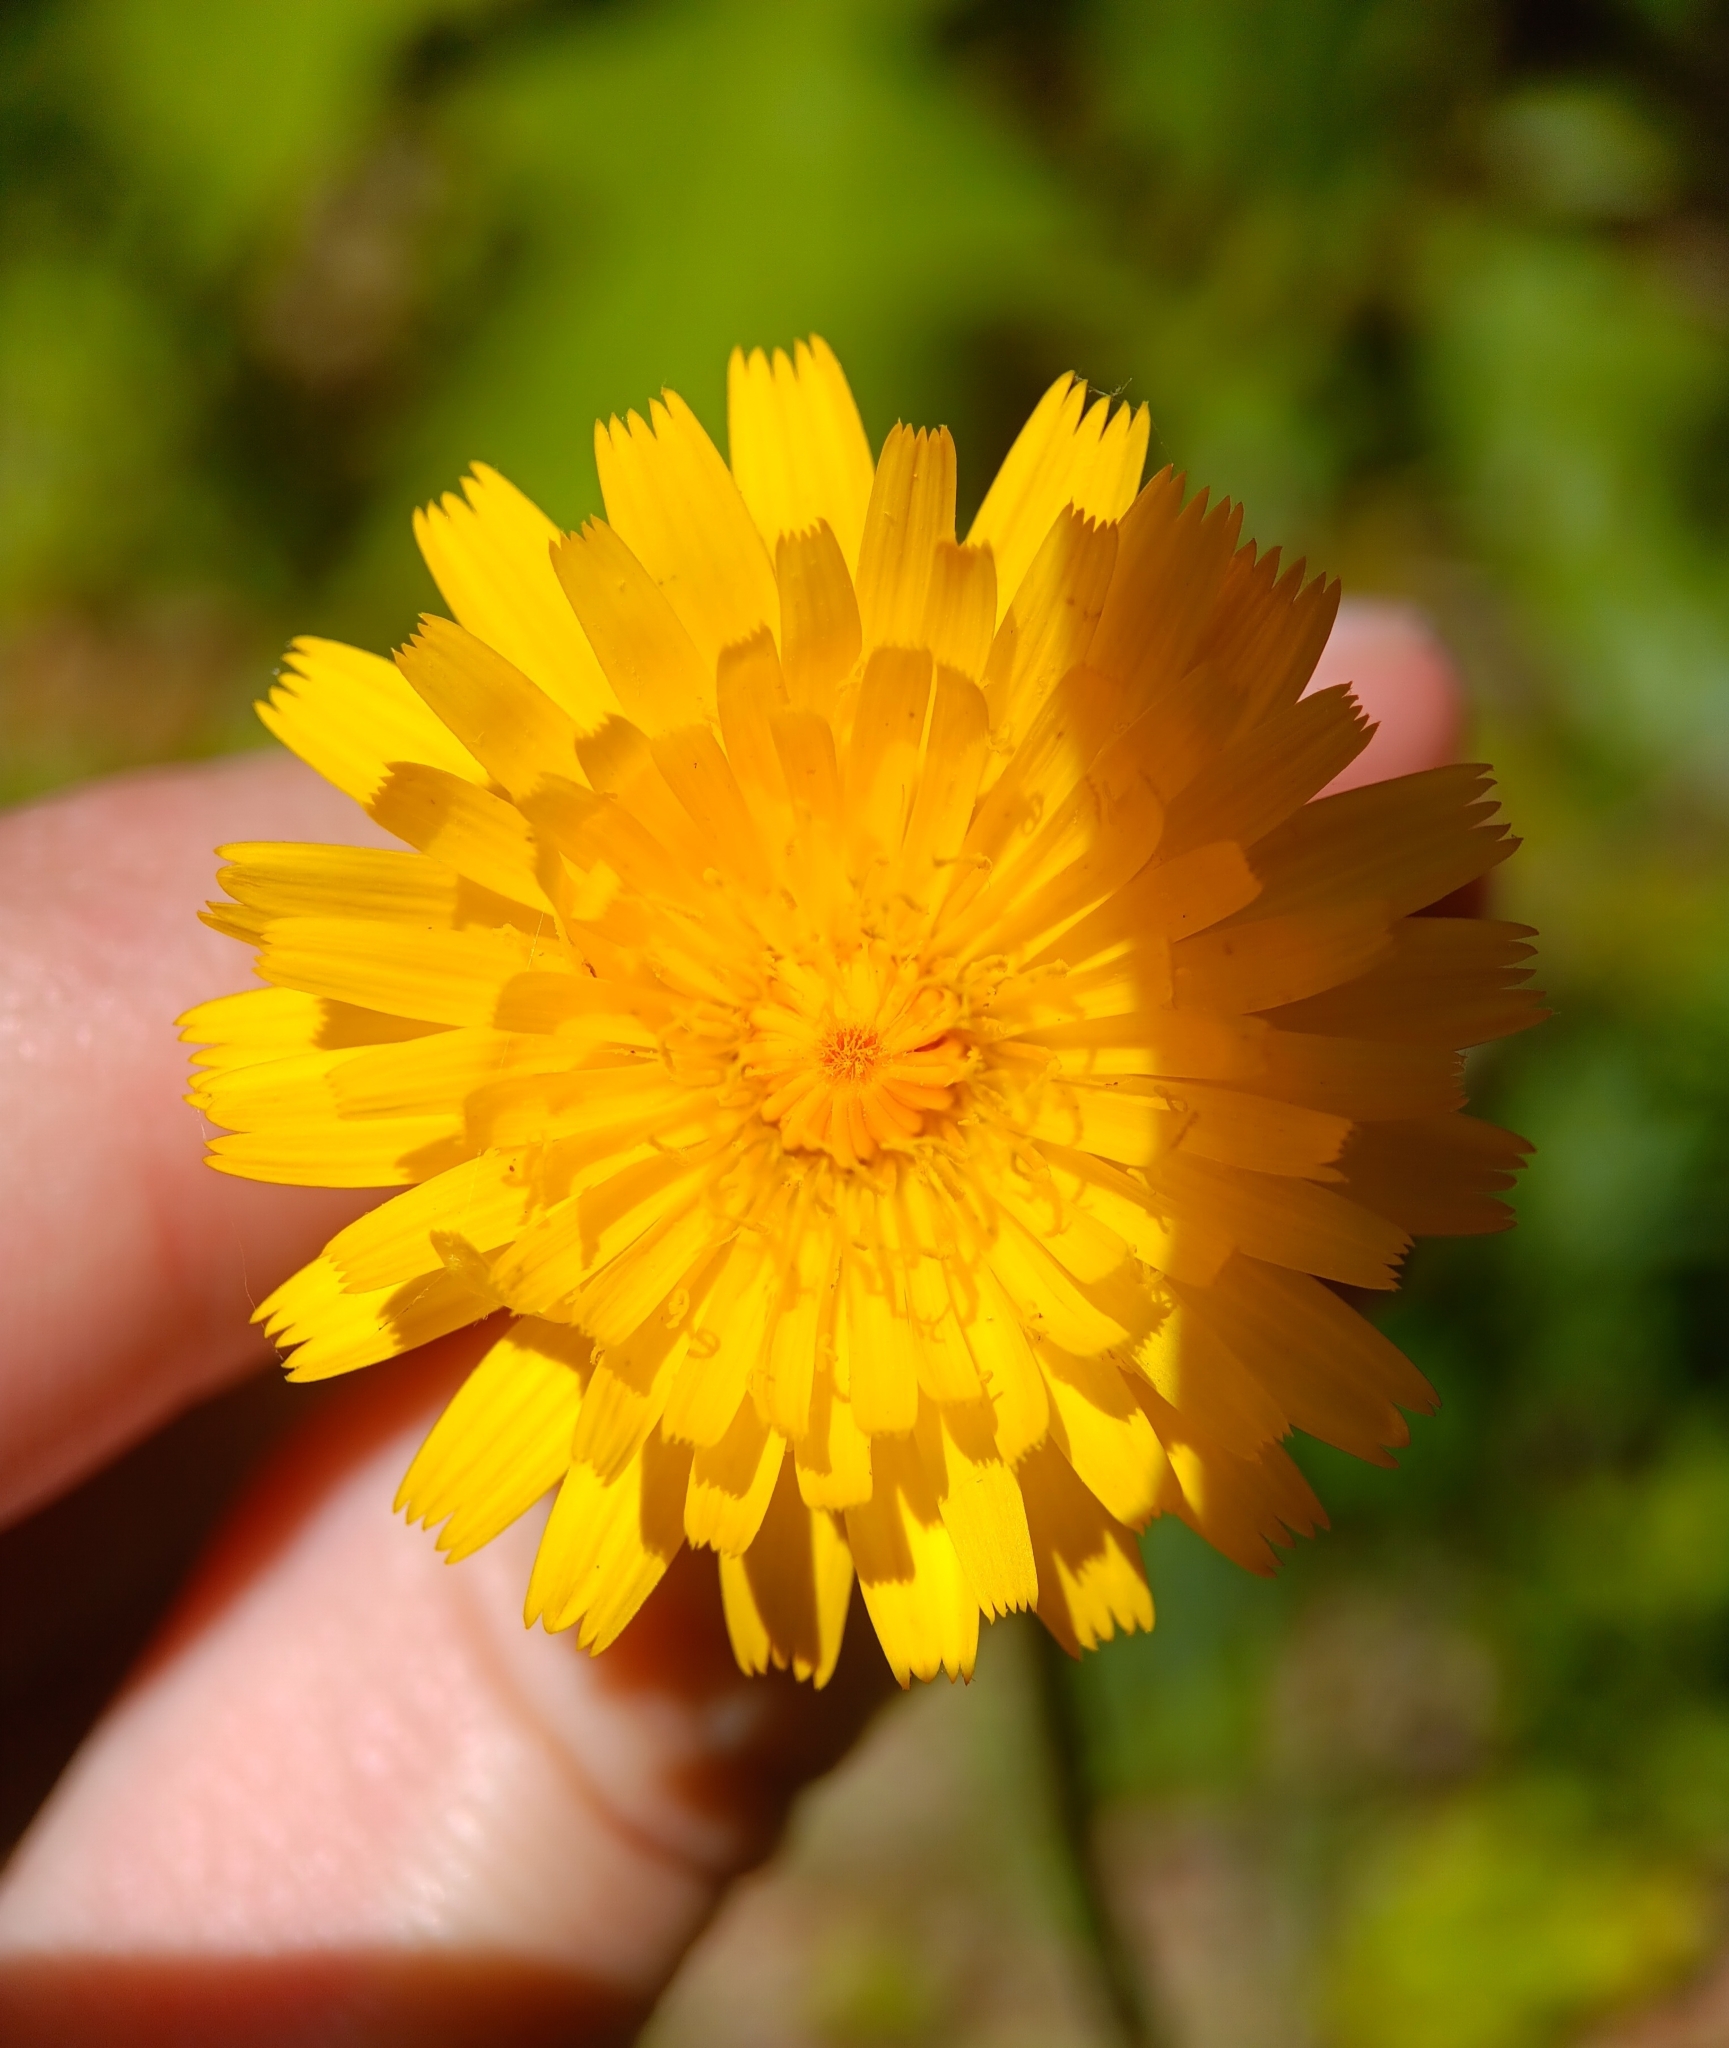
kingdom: Plantae
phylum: Tracheophyta
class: Magnoliopsida
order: Asterales
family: Asteraceae
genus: Hypochaeris
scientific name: Hypochaeris radicata
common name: Flatweed
